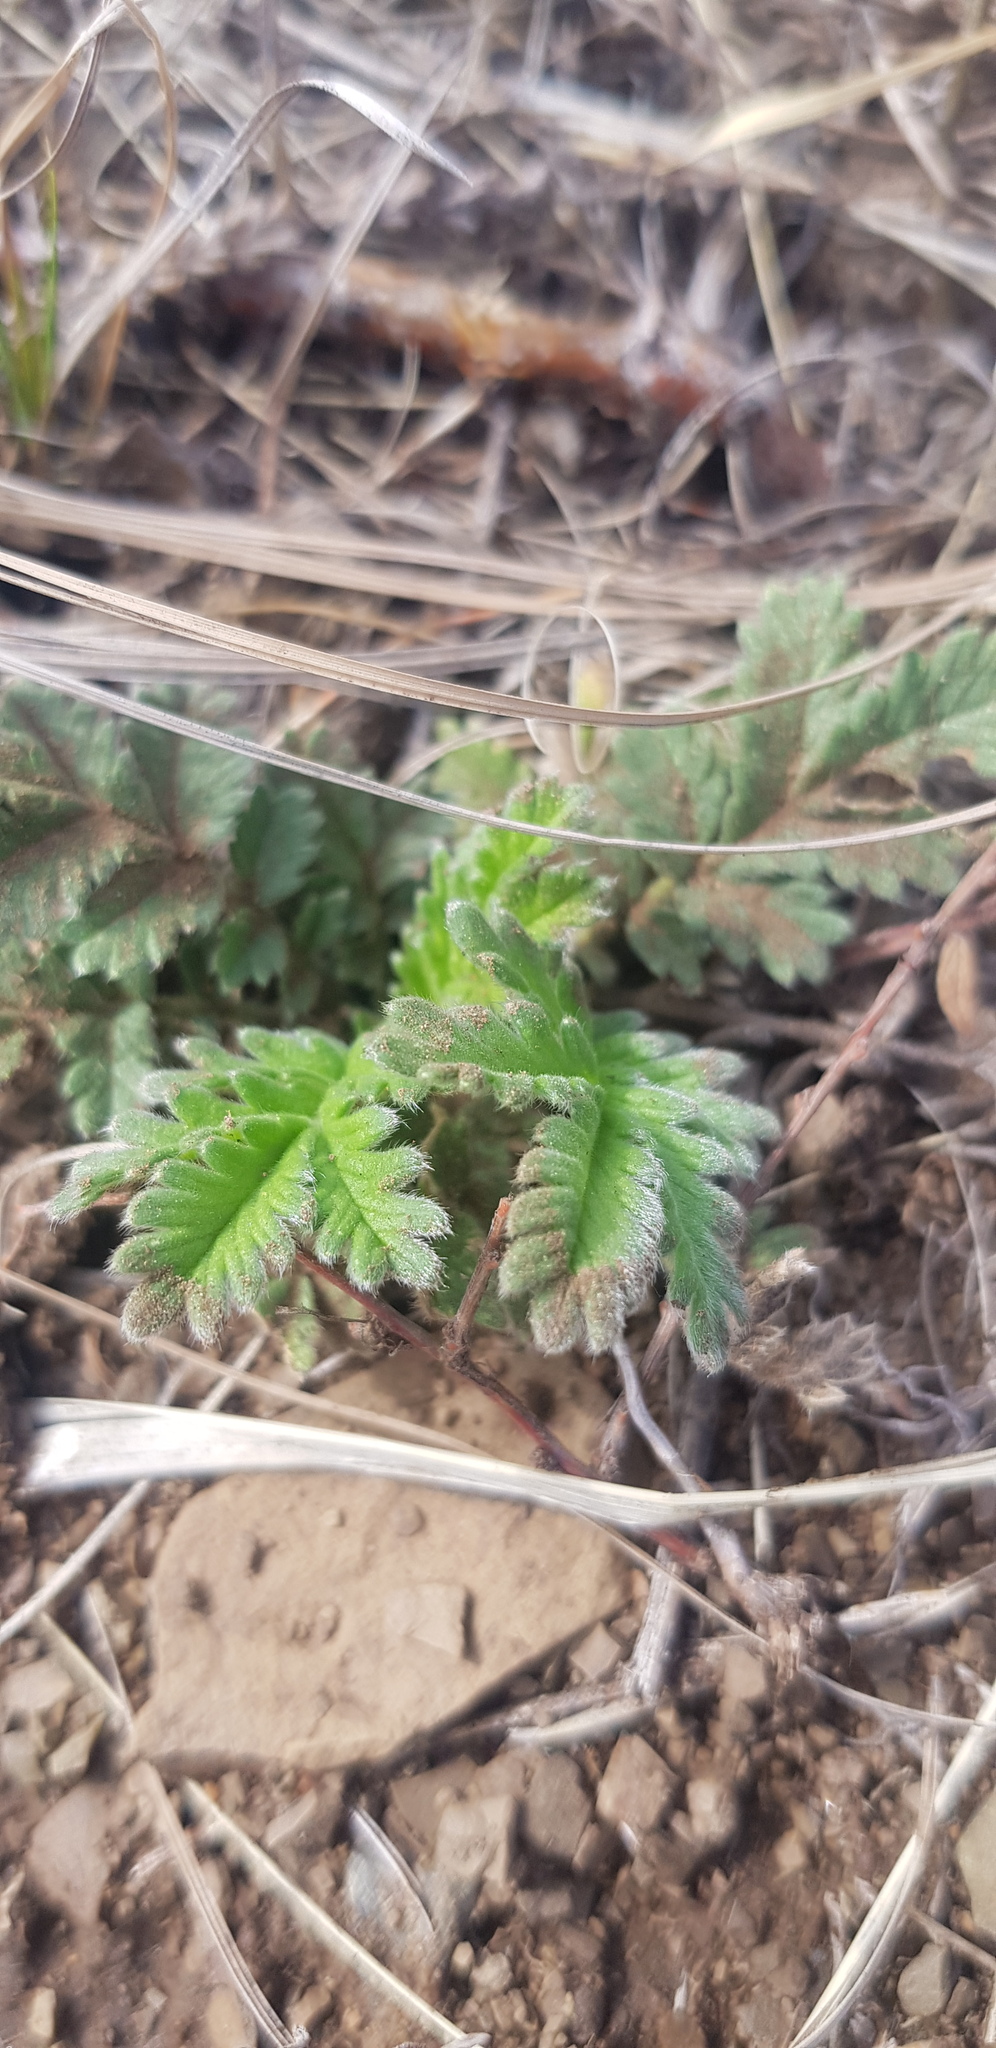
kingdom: Plantae
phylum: Tracheophyta
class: Magnoliopsida
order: Rosales
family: Rosaceae
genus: Potentilla
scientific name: Potentilla sericea
